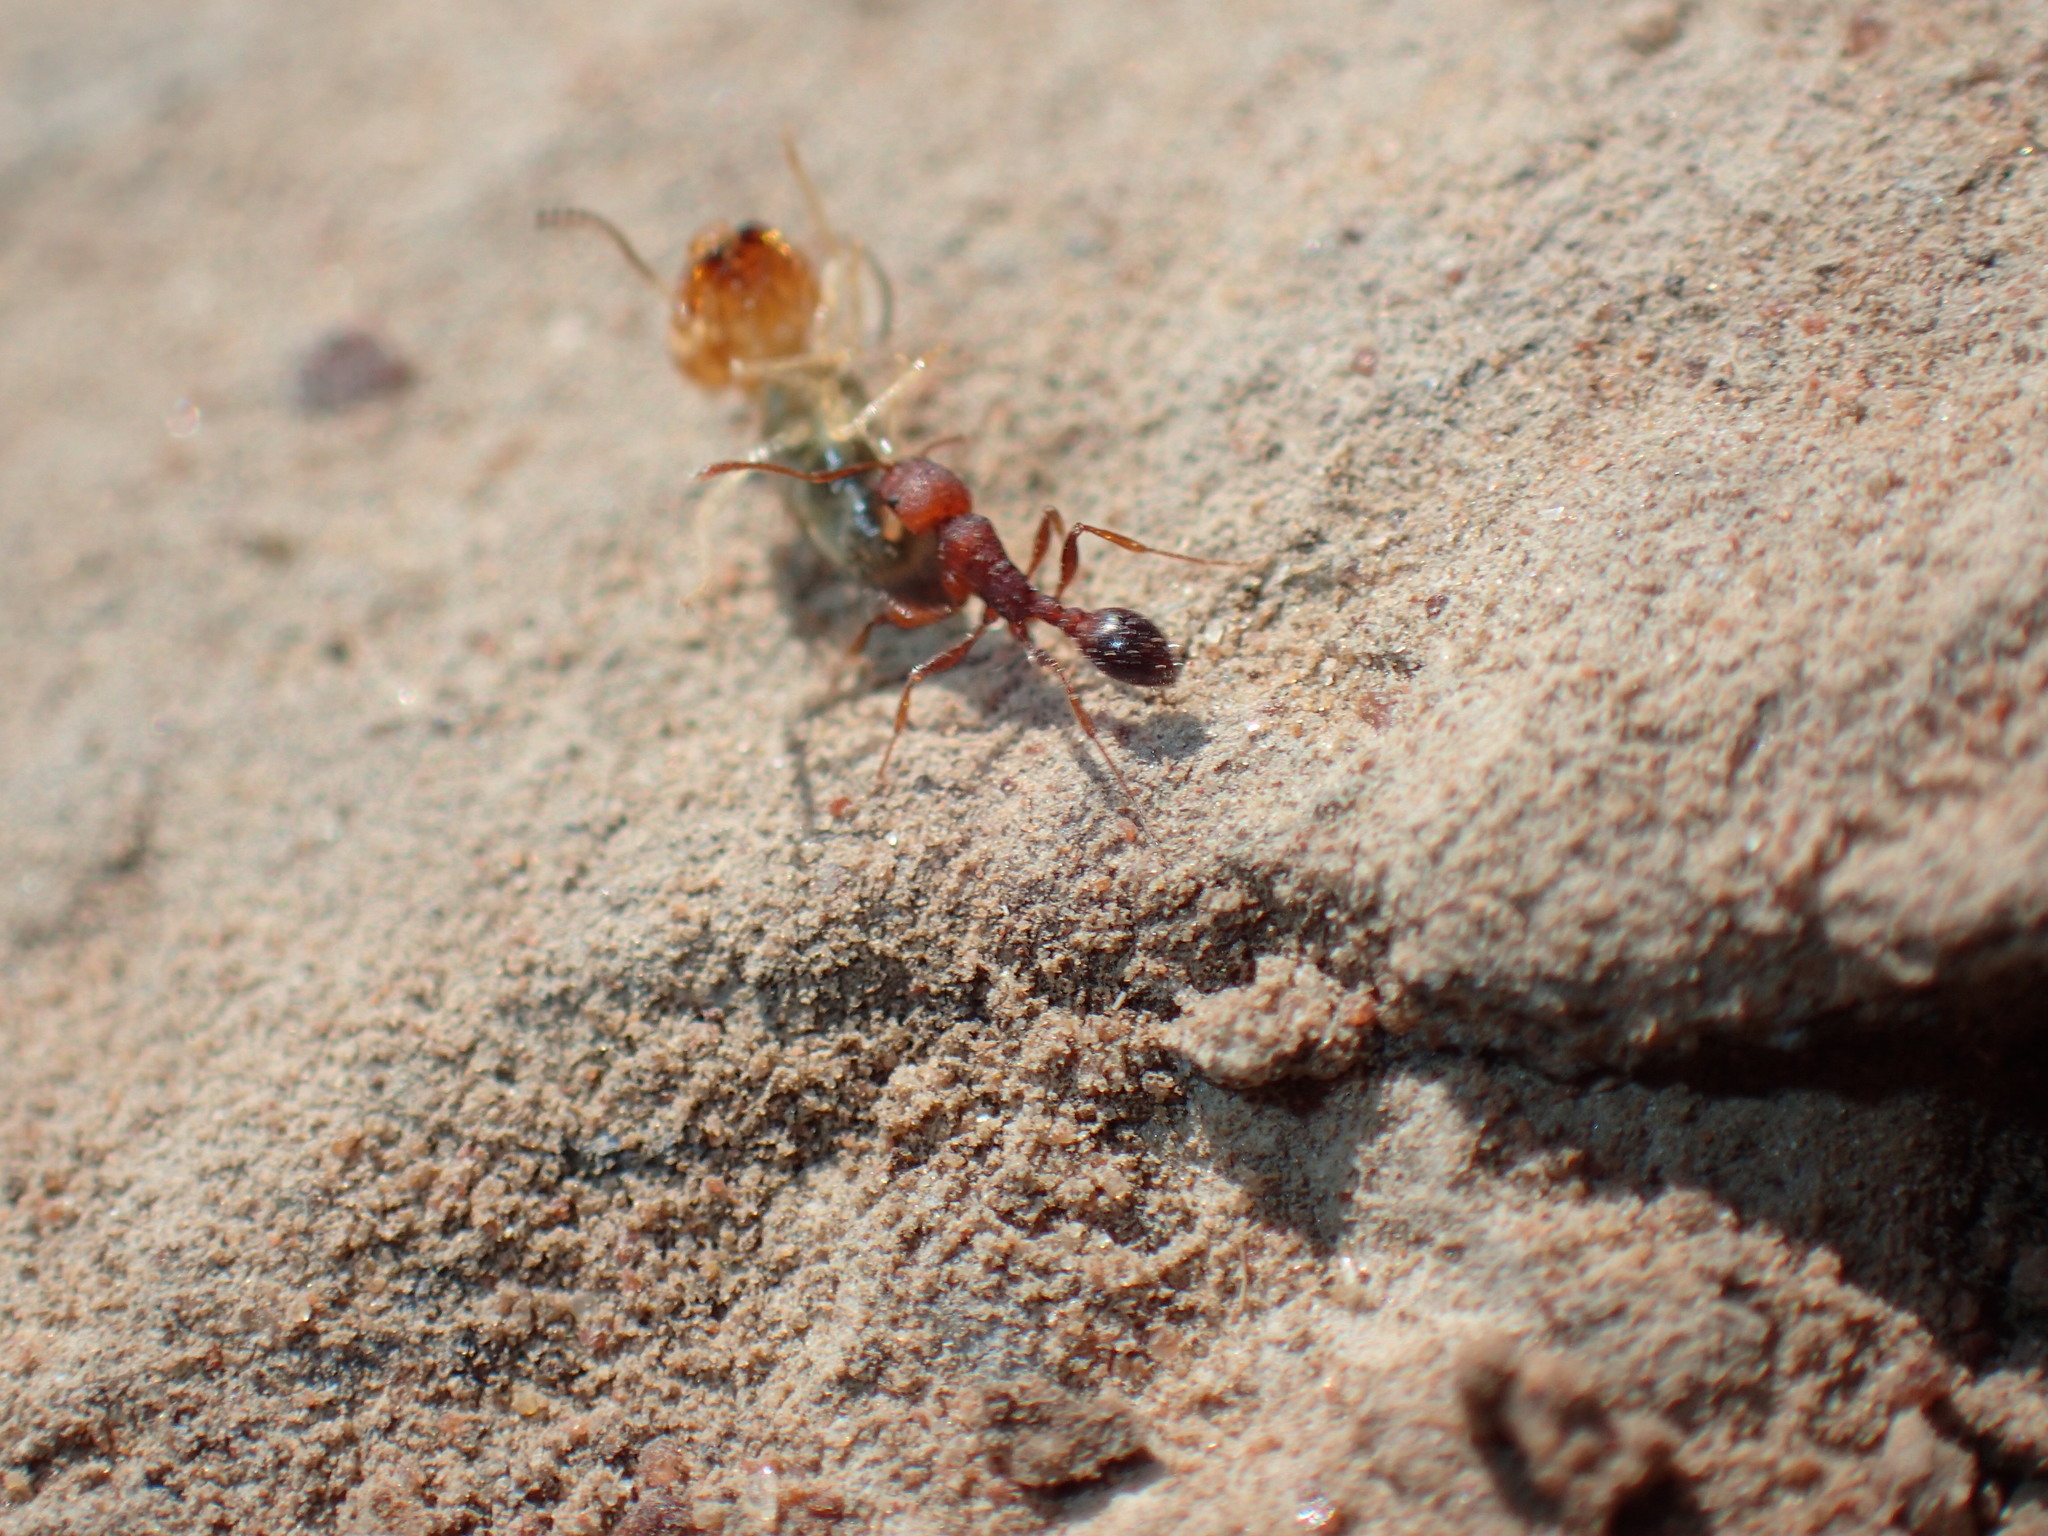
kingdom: Animalia
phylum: Arthropoda
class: Insecta
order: Hymenoptera
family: Formicidae
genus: Cardiocondyla
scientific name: Cardiocondyla emeryi
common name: Ant
